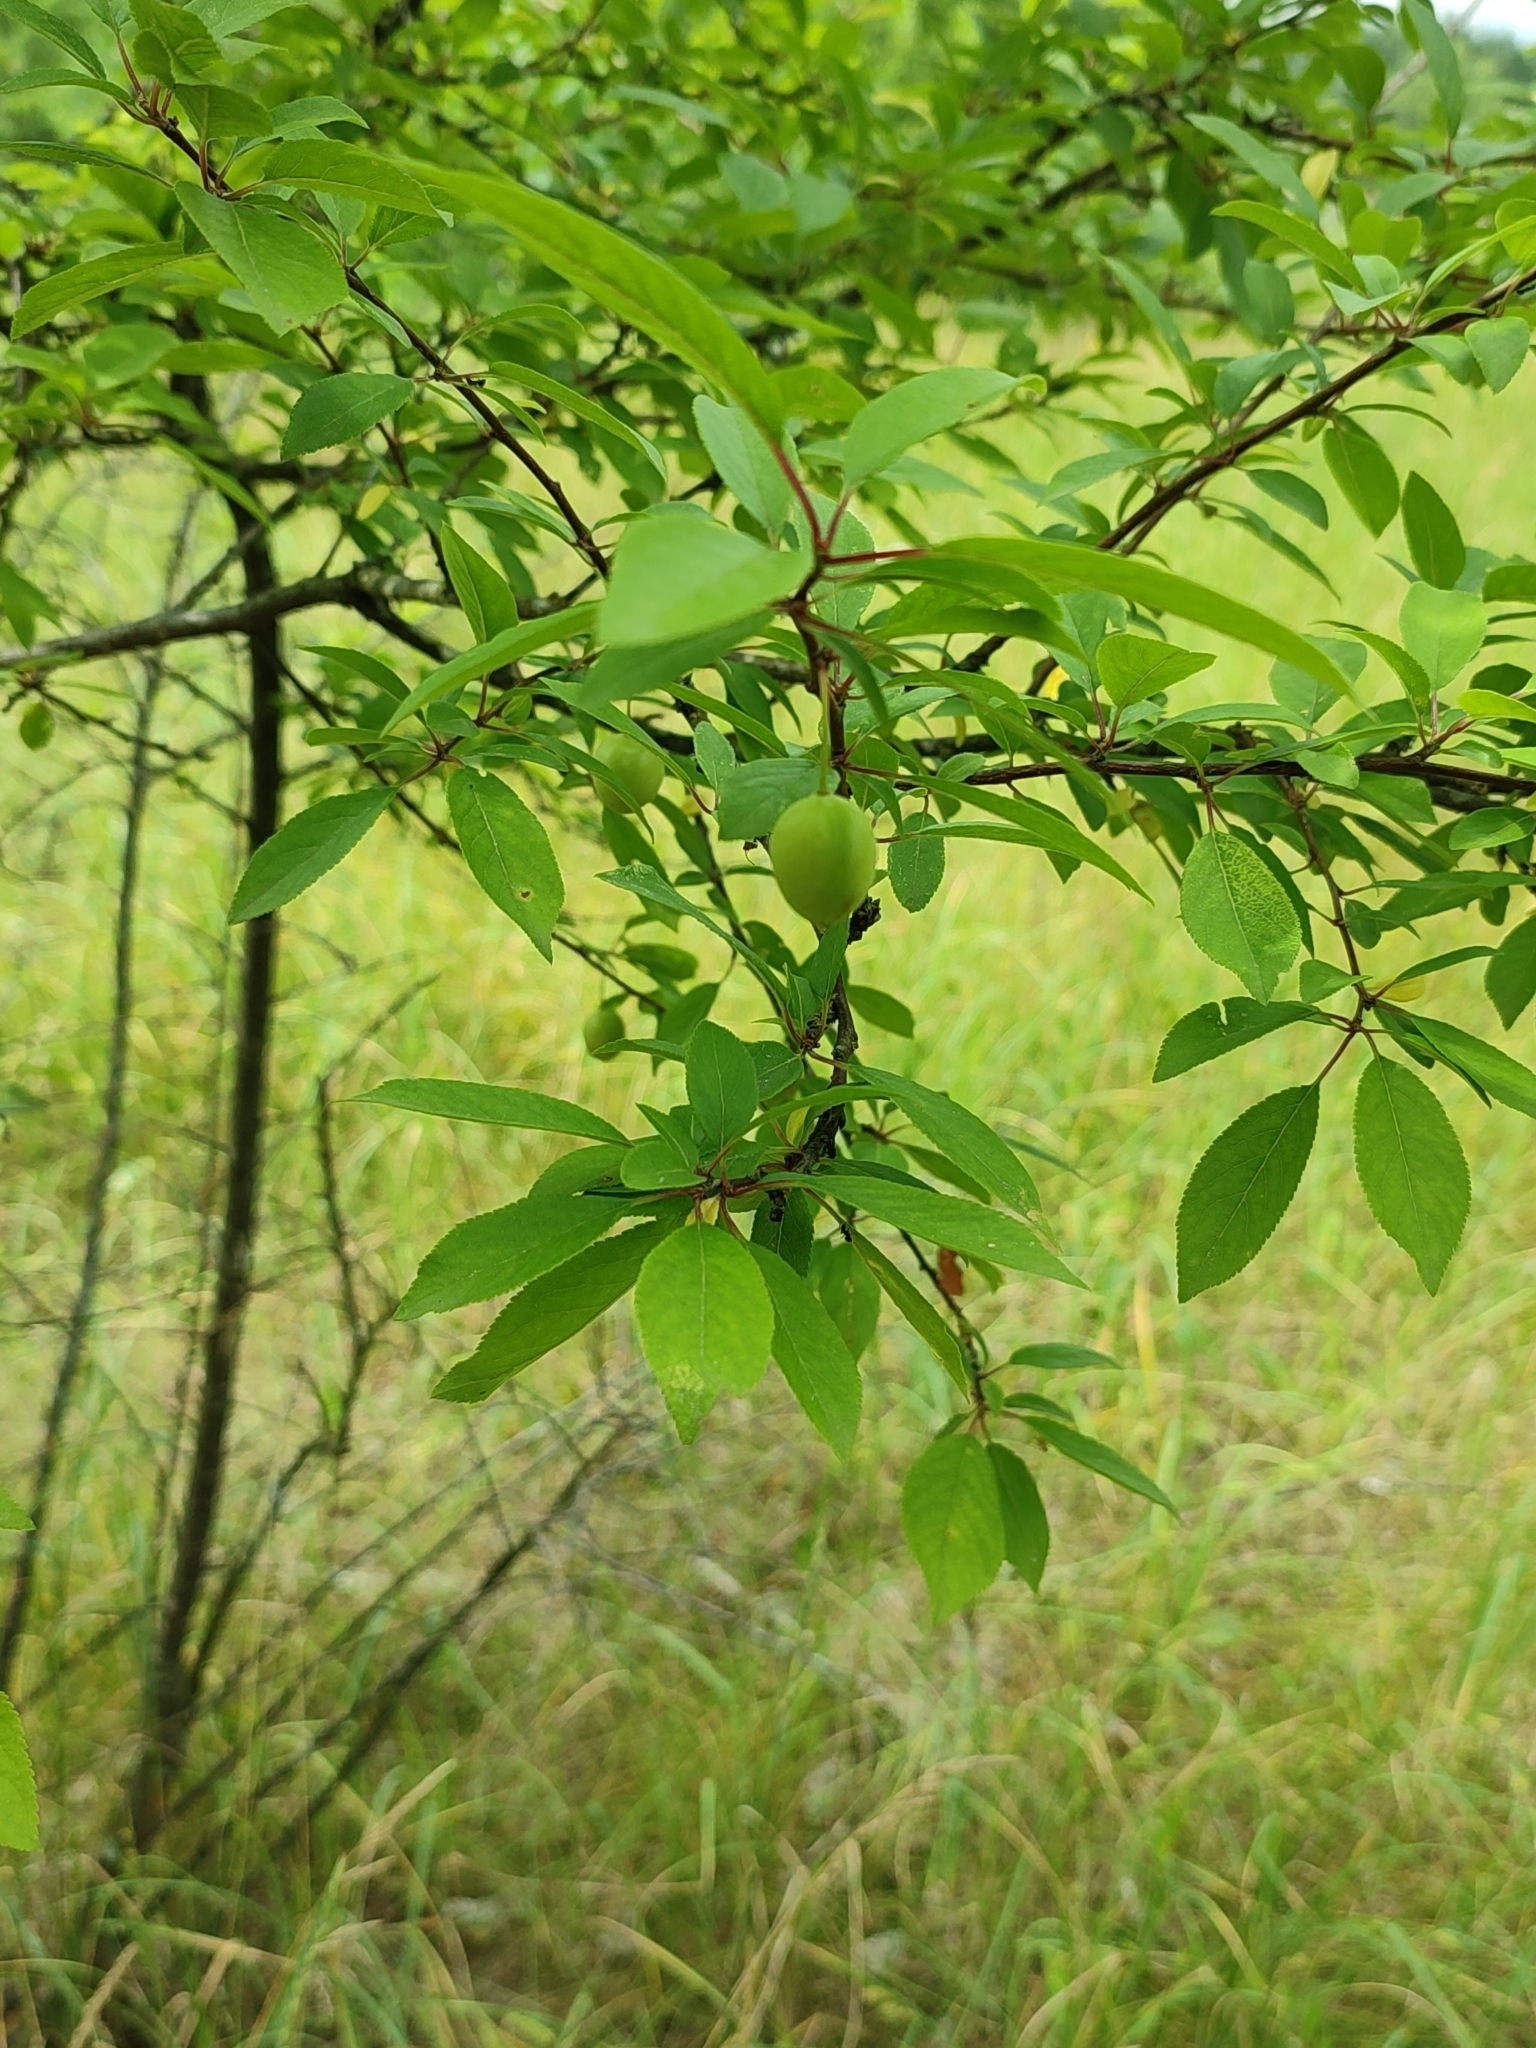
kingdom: Plantae
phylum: Tracheophyta
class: Magnoliopsida
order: Rosales
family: Rosaceae
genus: Prunus
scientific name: Prunus cerasifera
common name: Cherry plum
